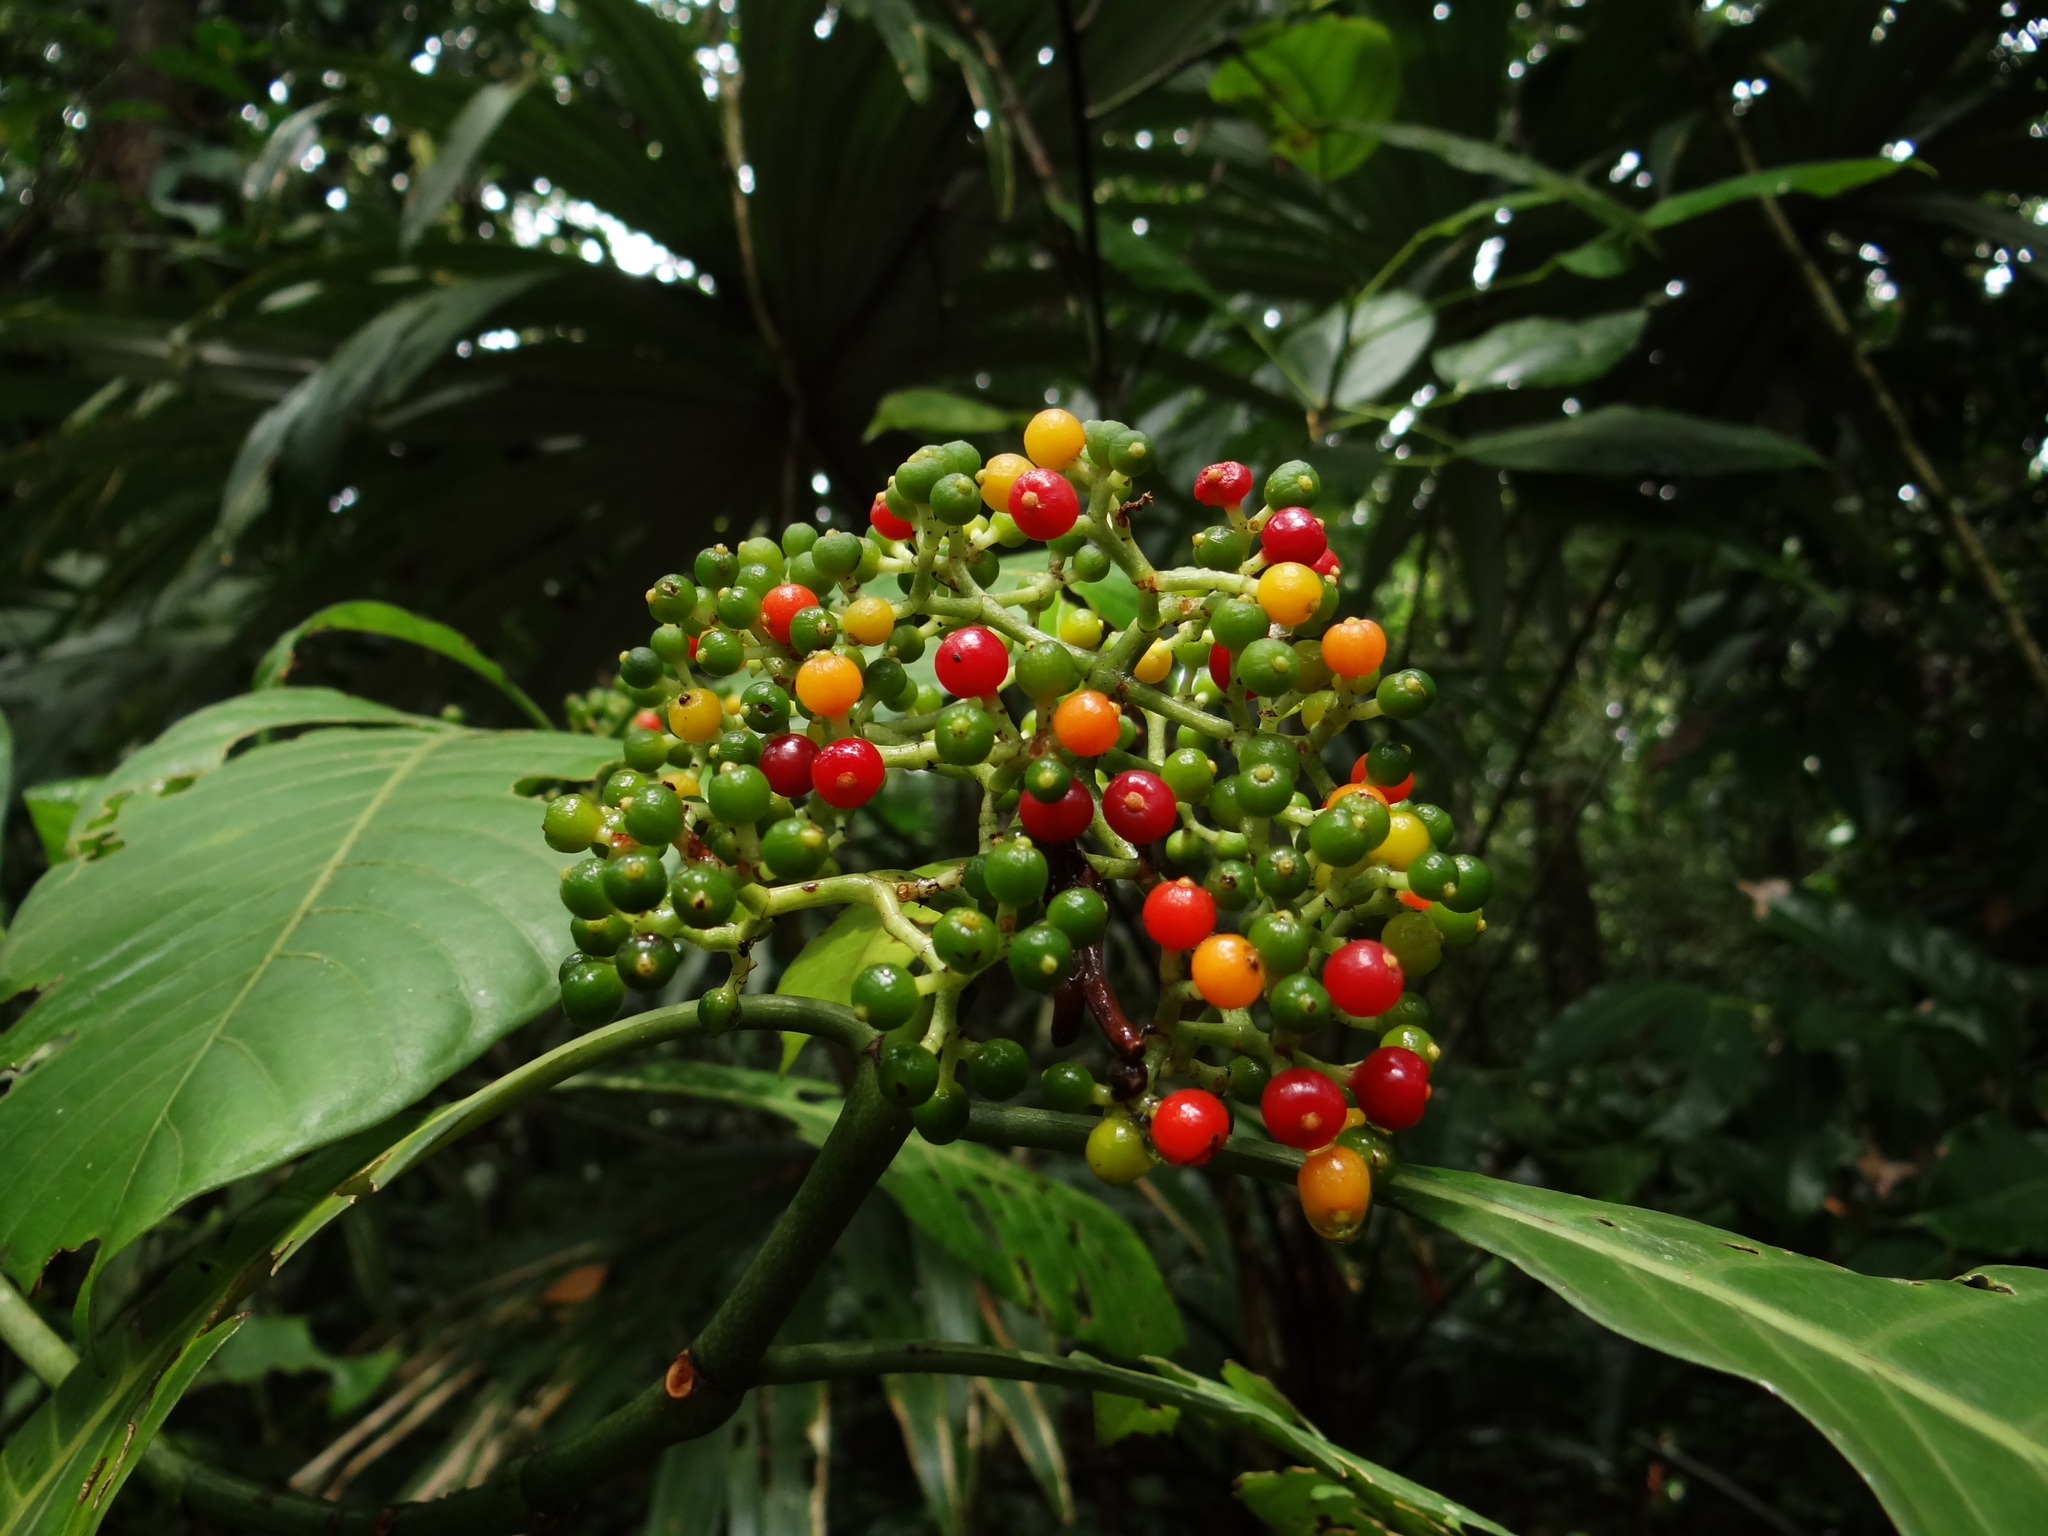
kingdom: Plantae
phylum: Tracheophyta
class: Magnoliopsida
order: Gentianales
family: Rubiaceae
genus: Psychotria
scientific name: Psychotria limonensis
